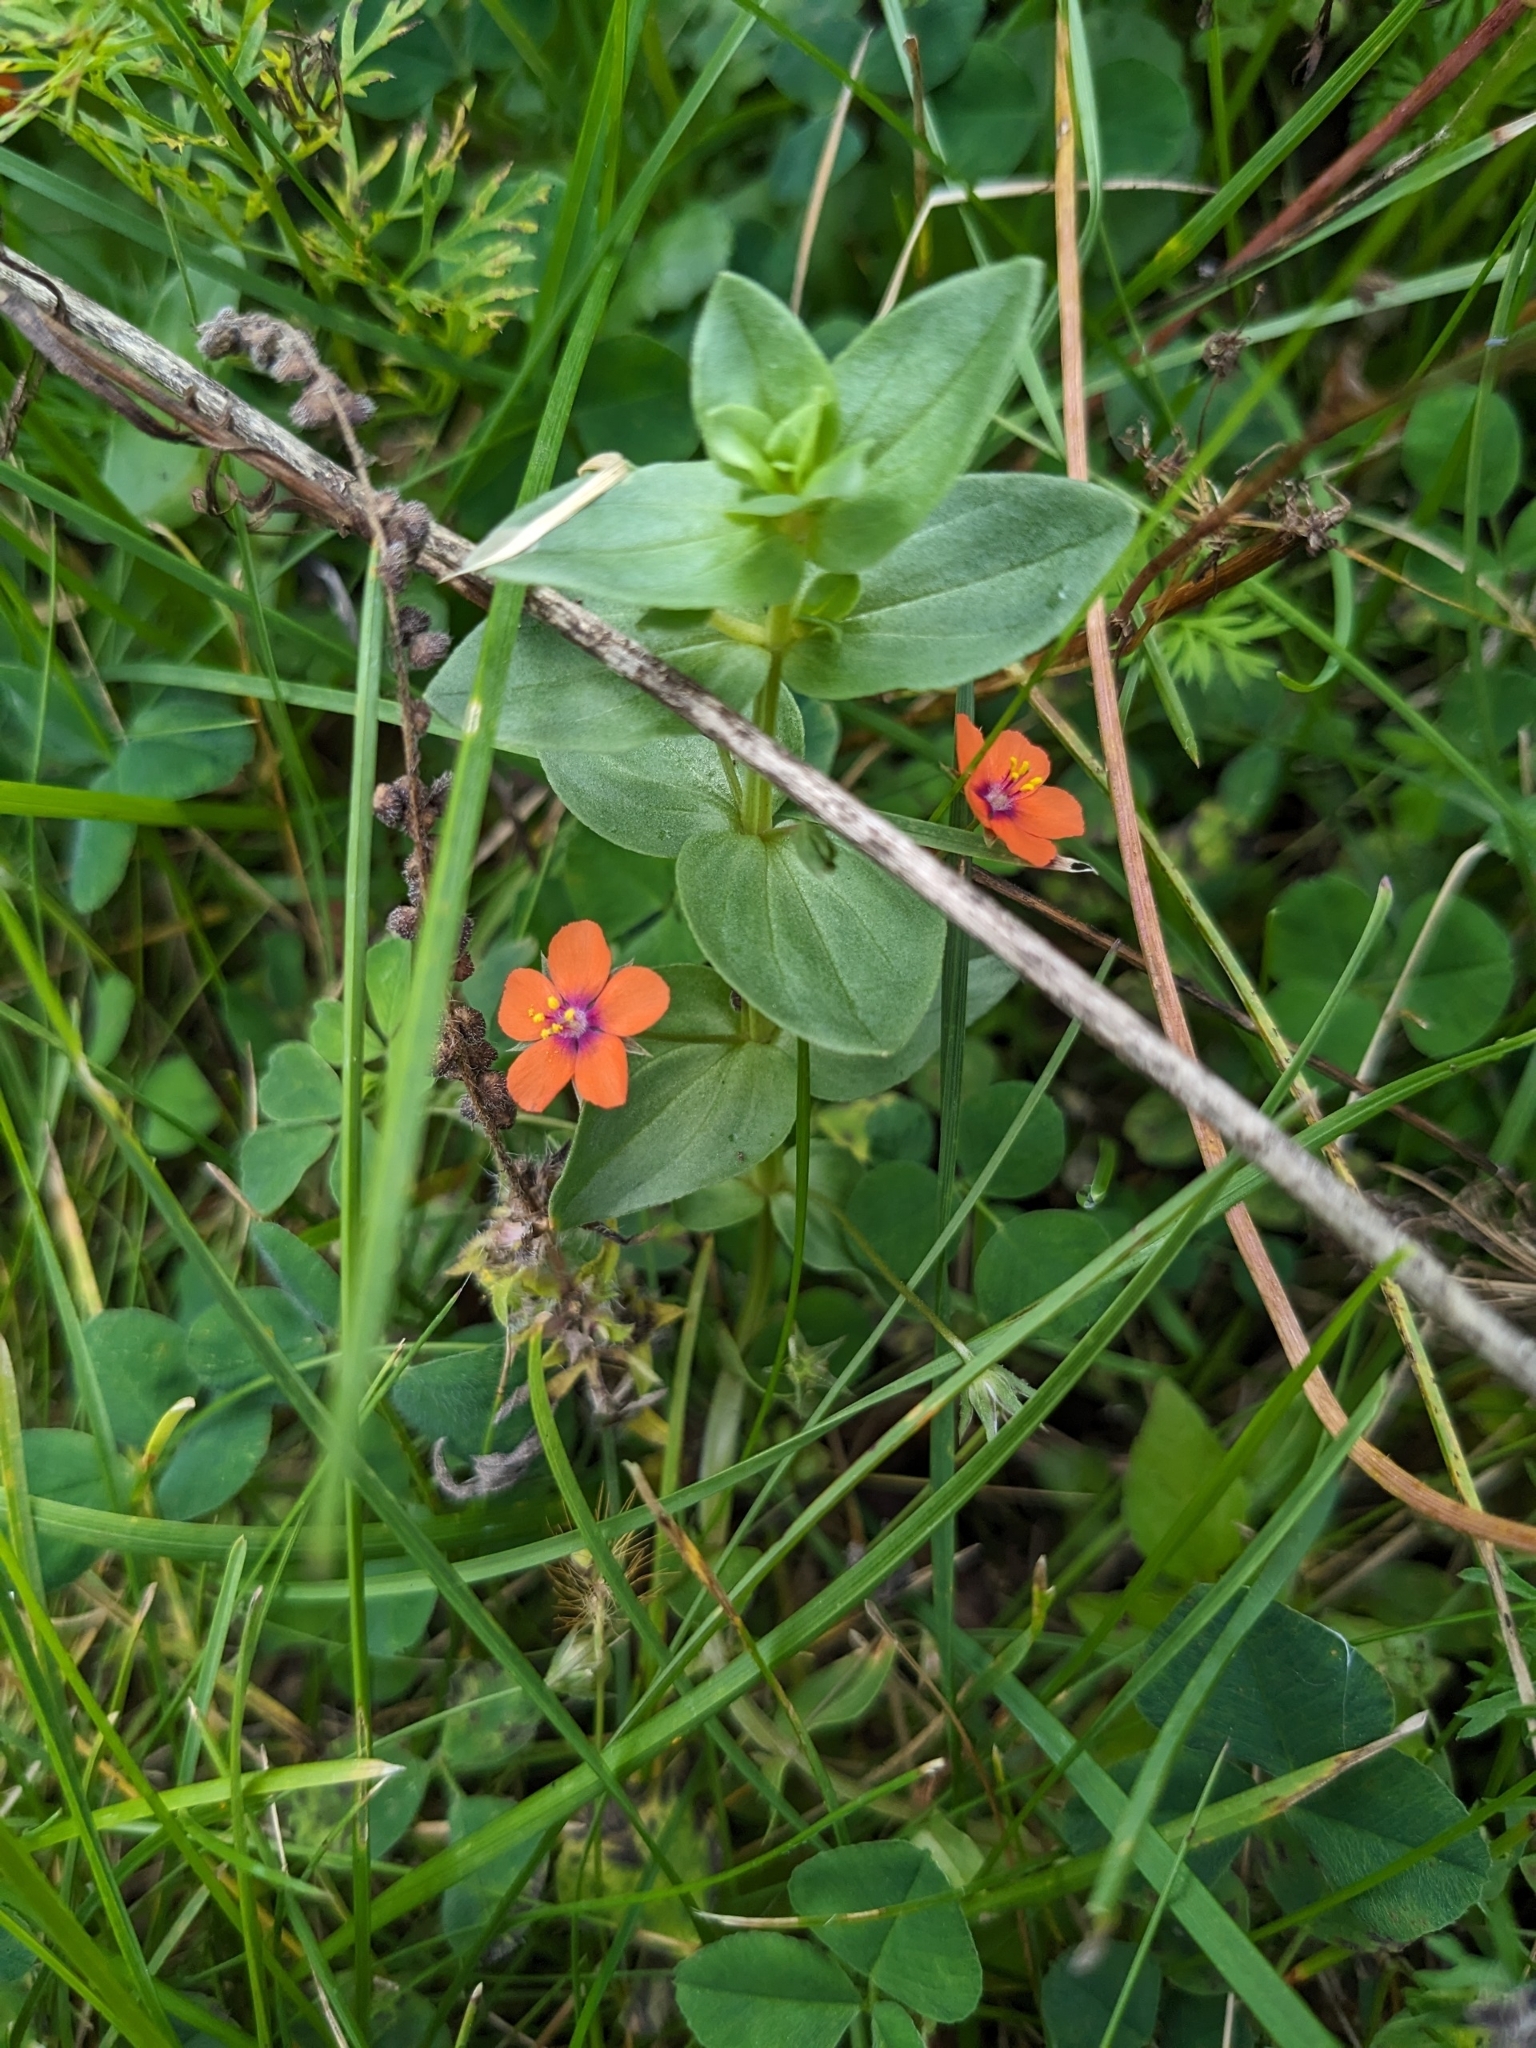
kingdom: Plantae
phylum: Tracheophyta
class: Magnoliopsida
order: Ericales
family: Primulaceae
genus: Lysimachia
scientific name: Lysimachia arvensis
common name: Scarlet pimpernel
